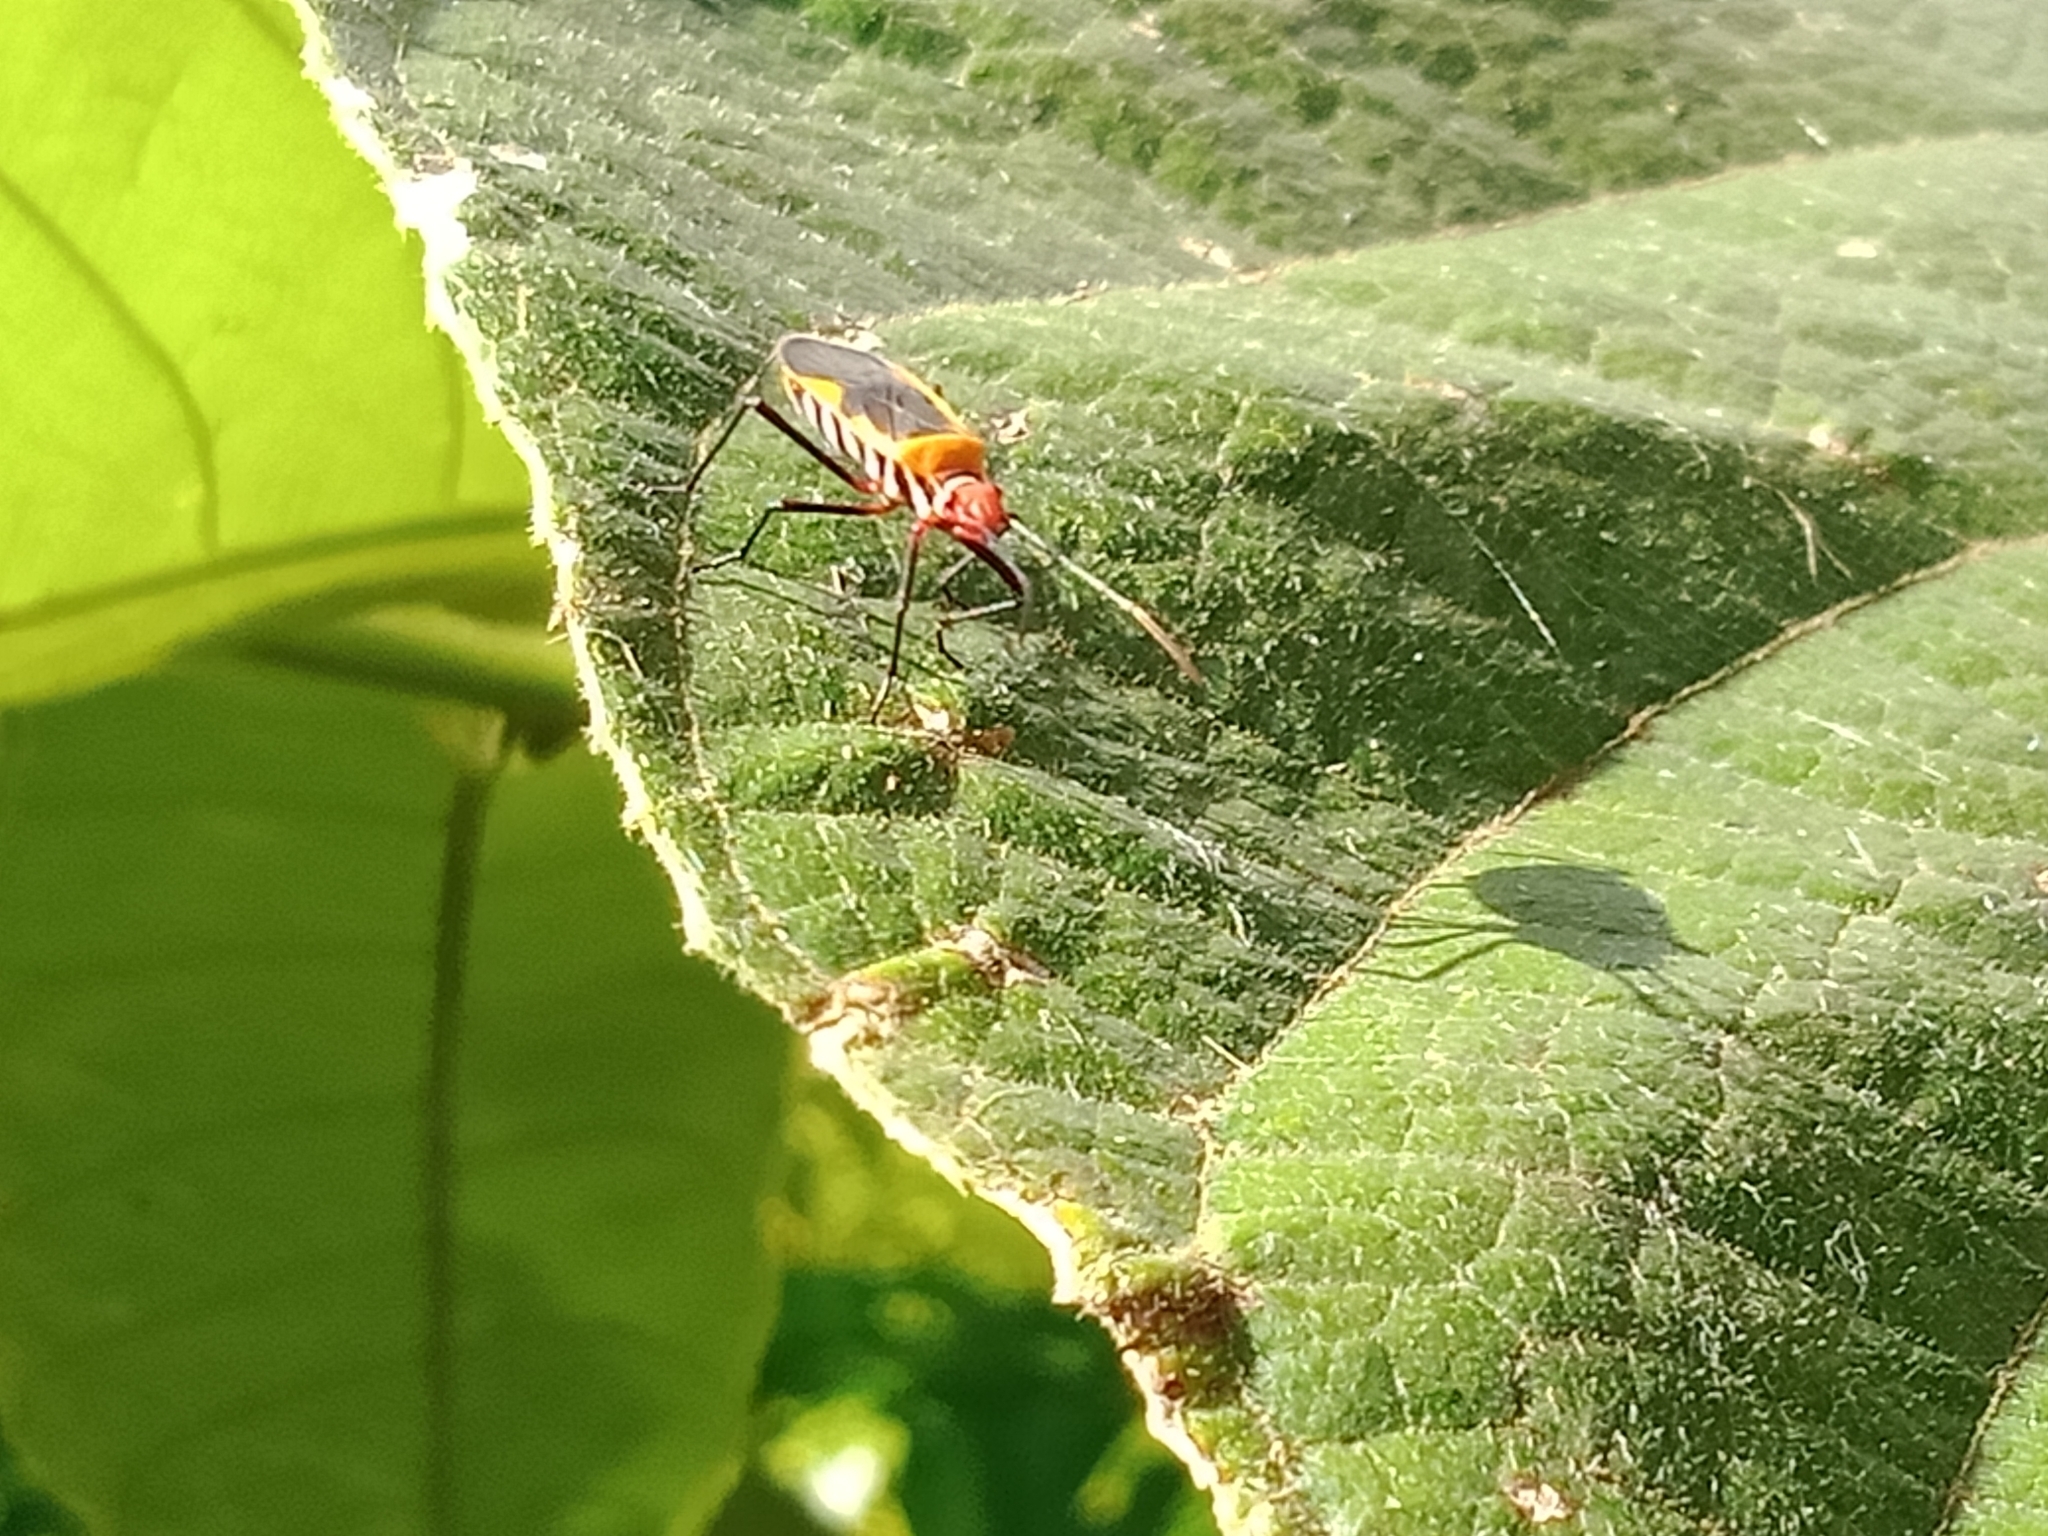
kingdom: Animalia
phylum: Arthropoda
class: Insecta
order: Hemiptera
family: Pyrrhocoridae
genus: Dysdercus
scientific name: Dysdercus poecilus
